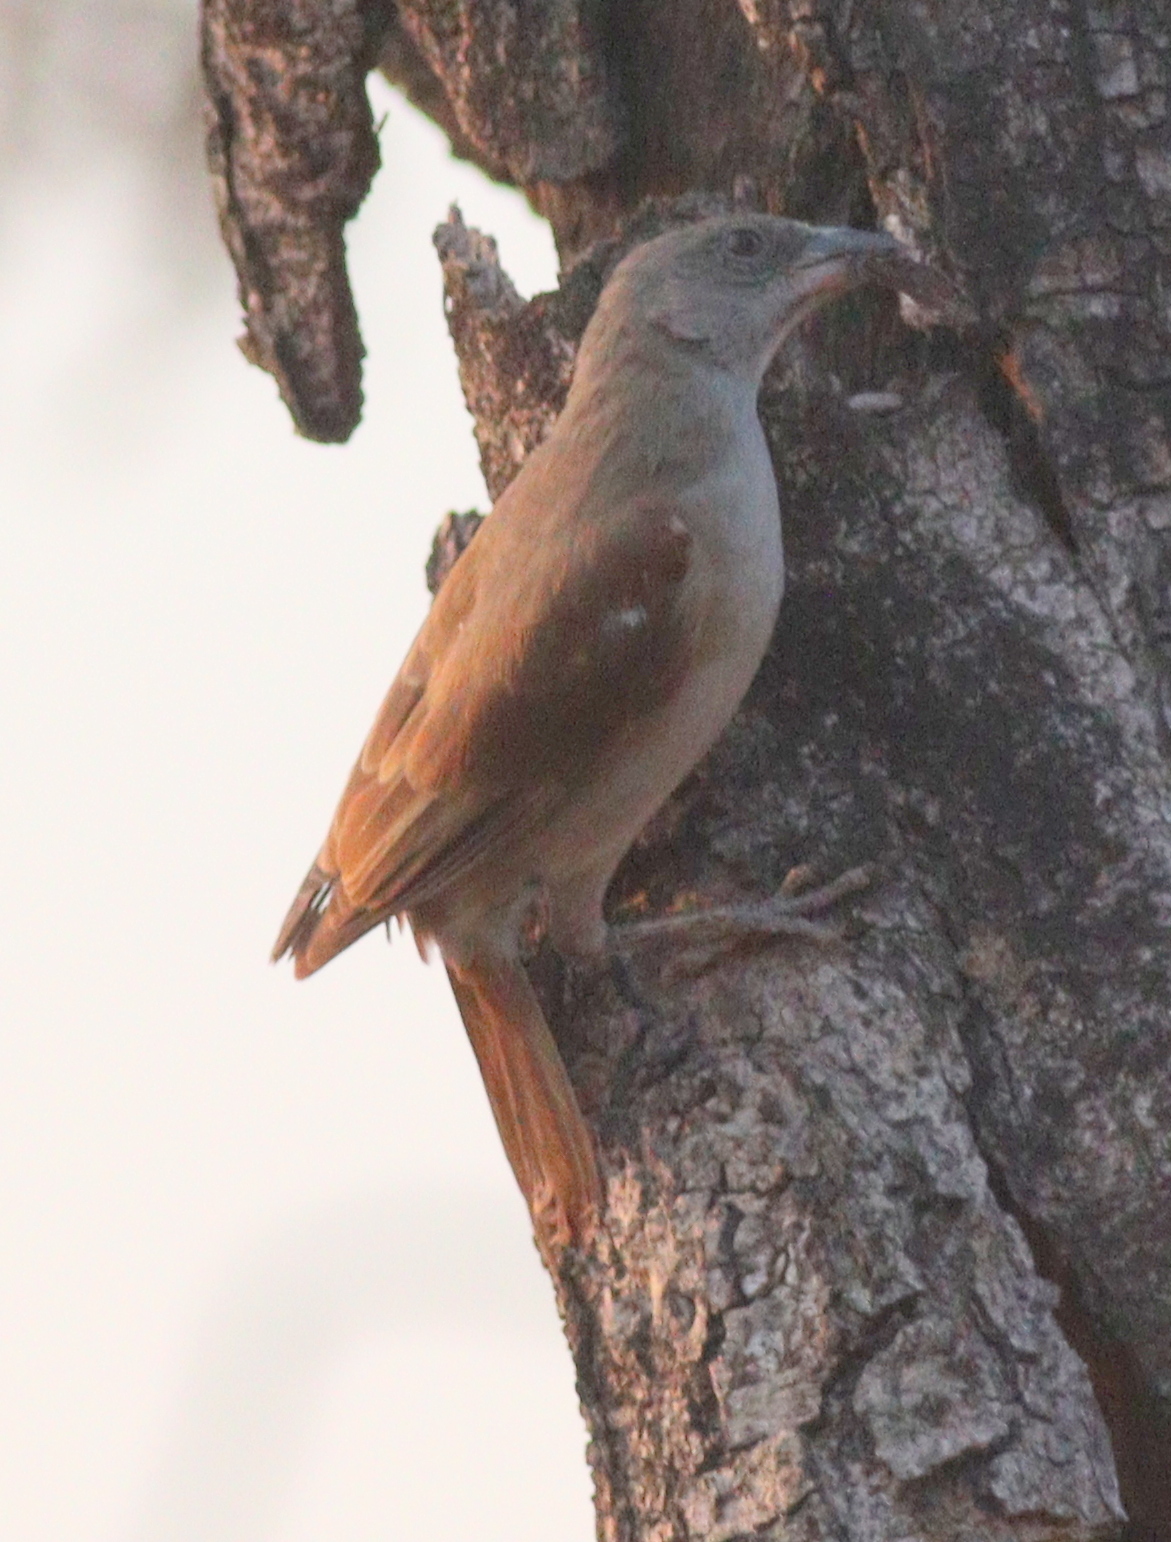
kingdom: Animalia
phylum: Chordata
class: Aves
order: Passeriformes
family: Passeridae
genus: Passer
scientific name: Passer griseus
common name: Northern grey-headed sparrow
